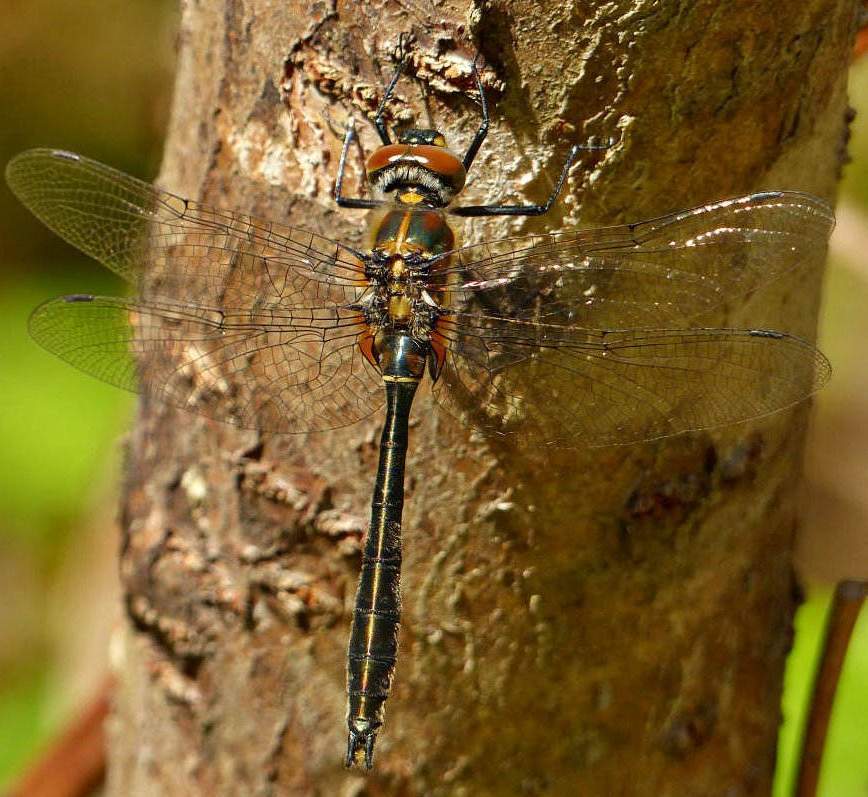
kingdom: Animalia
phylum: Arthropoda
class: Insecta
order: Odonata
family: Corduliidae
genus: Cordulia
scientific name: Cordulia shurtleffii
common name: American emerald
